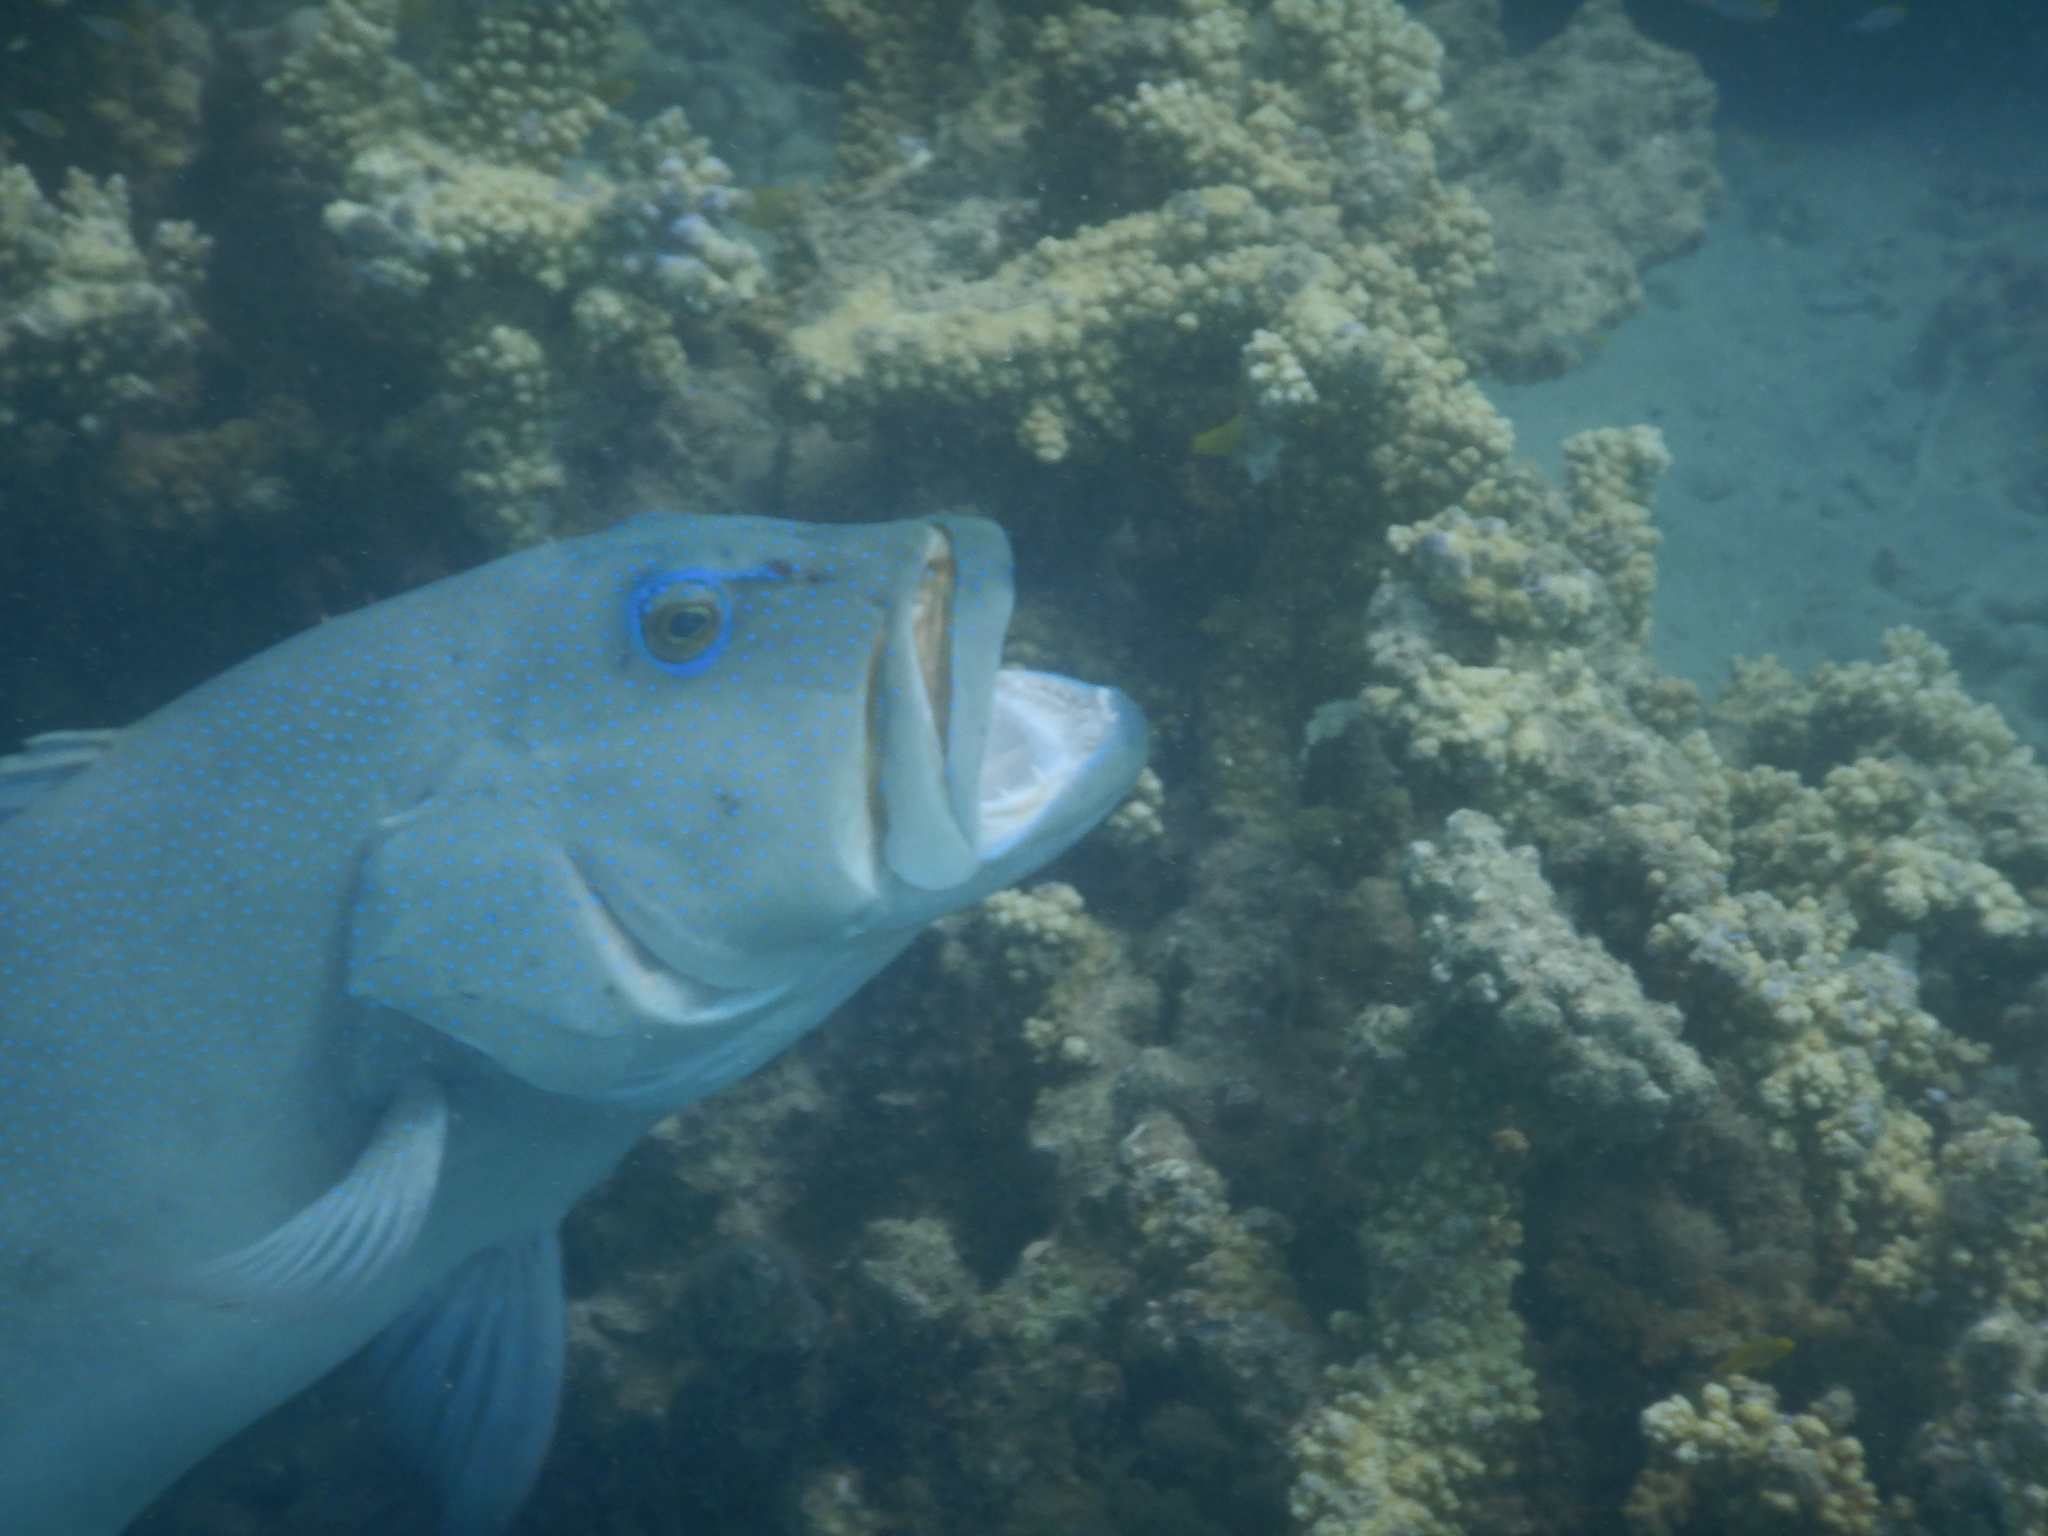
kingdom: Animalia
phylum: Chordata
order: Perciformes
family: Serranidae
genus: Plectropomus
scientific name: Plectropomus leopardus
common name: Coral trout
